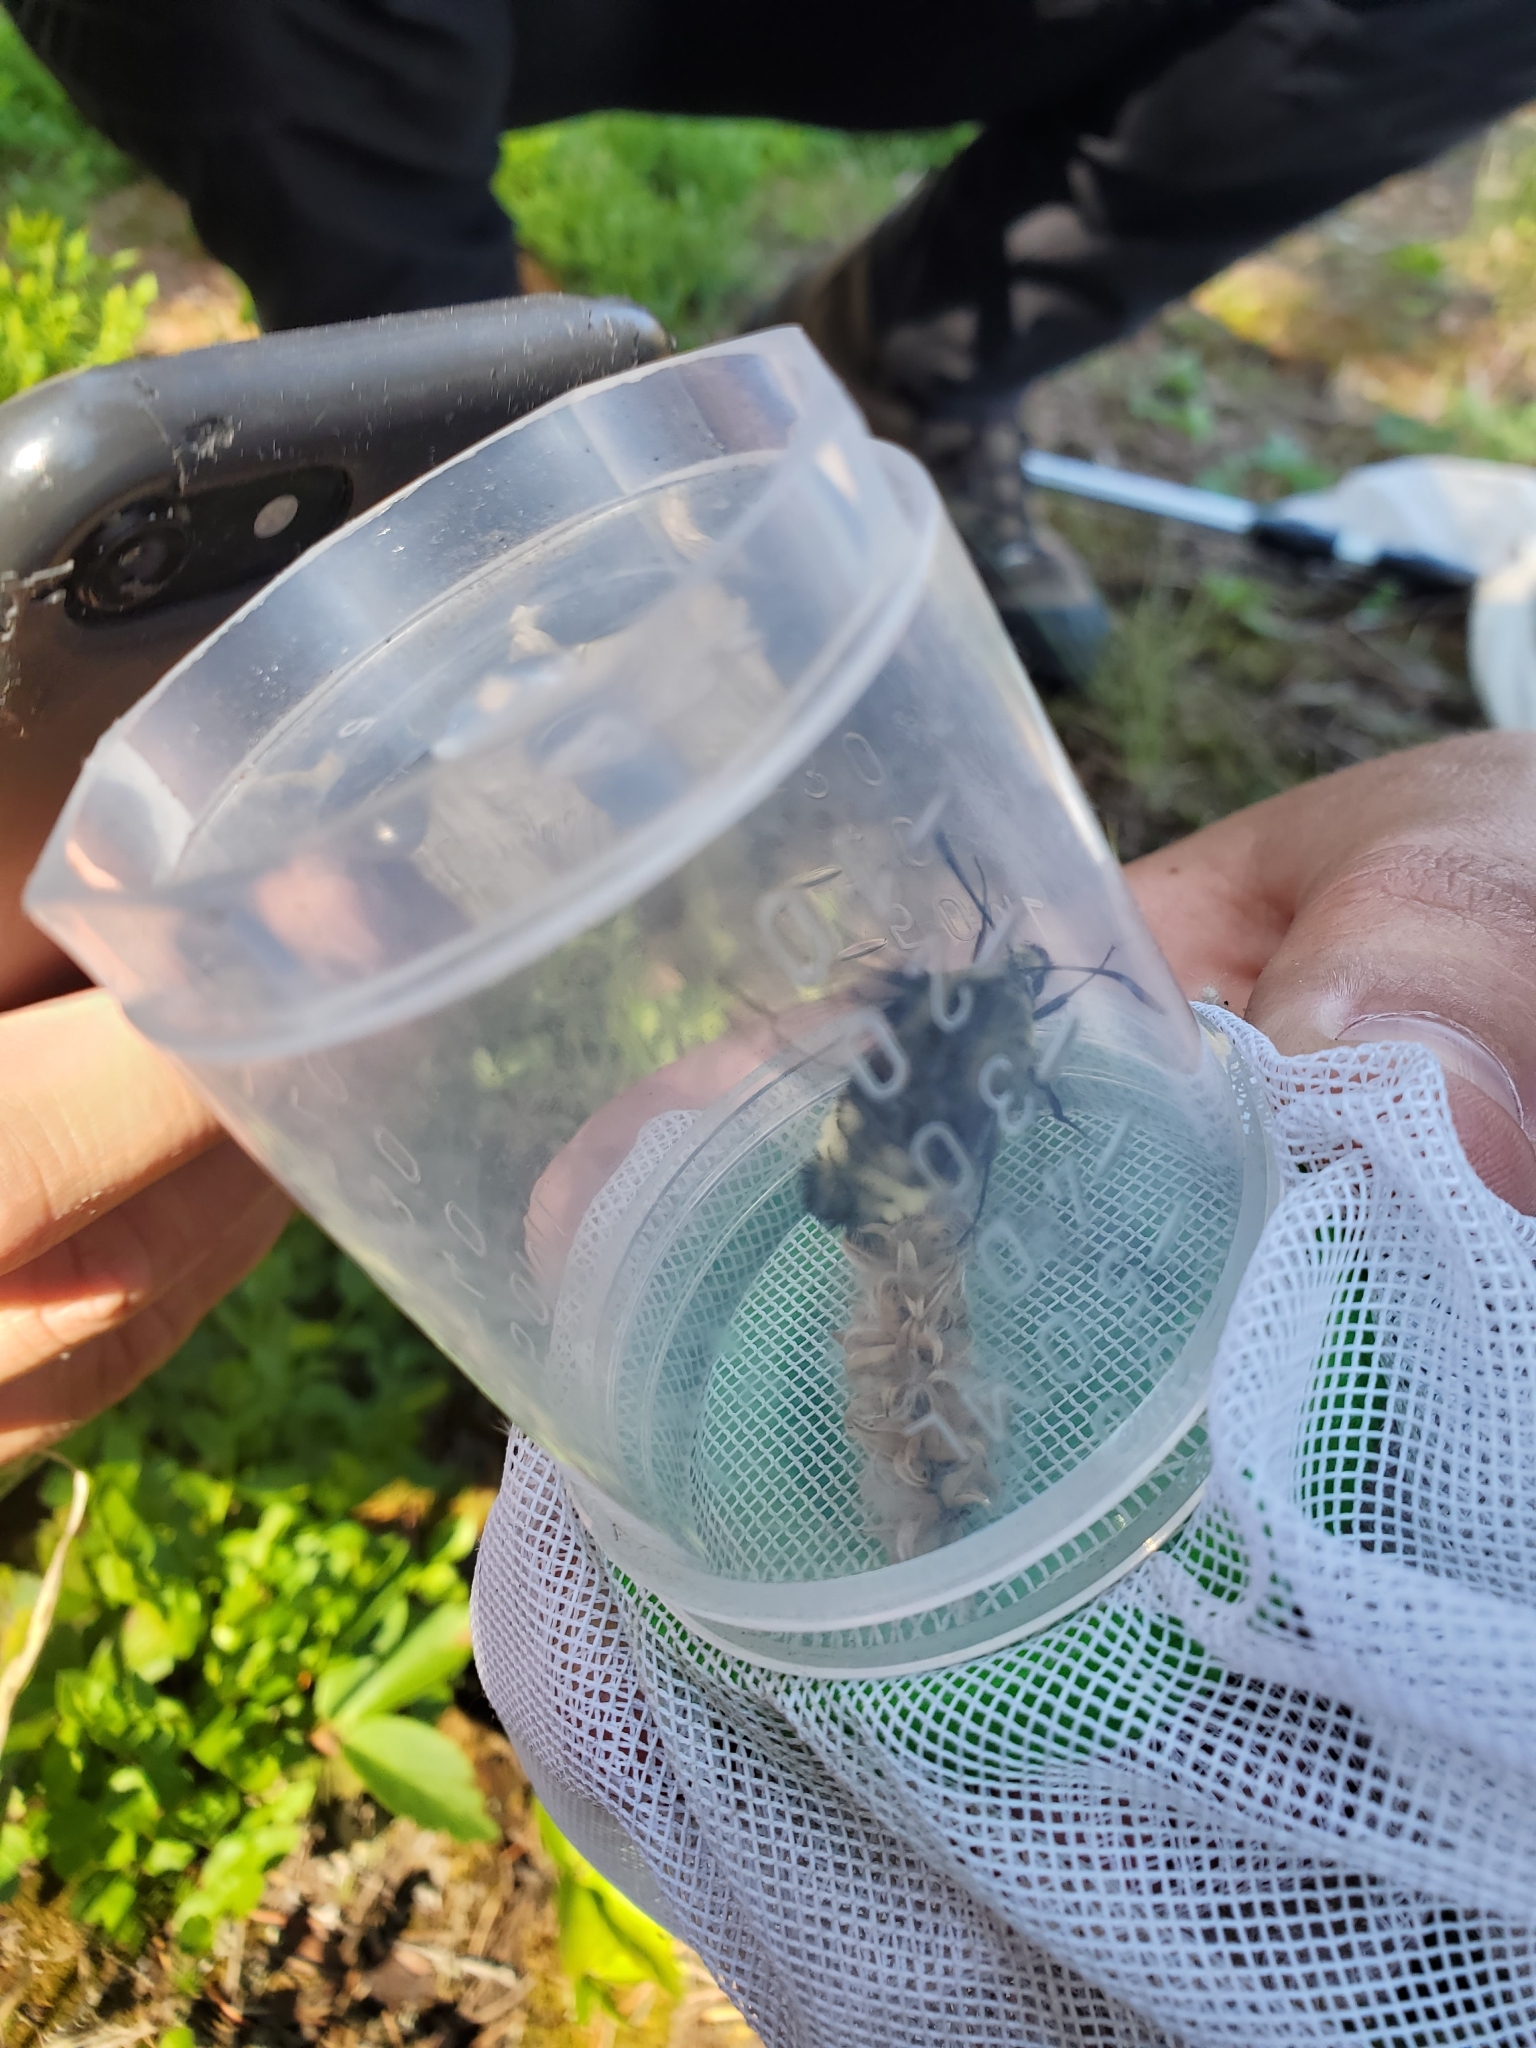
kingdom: Animalia
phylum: Arthropoda
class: Insecta
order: Lepidoptera
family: Sphingidae
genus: Hemaris
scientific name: Hemaris thetis
